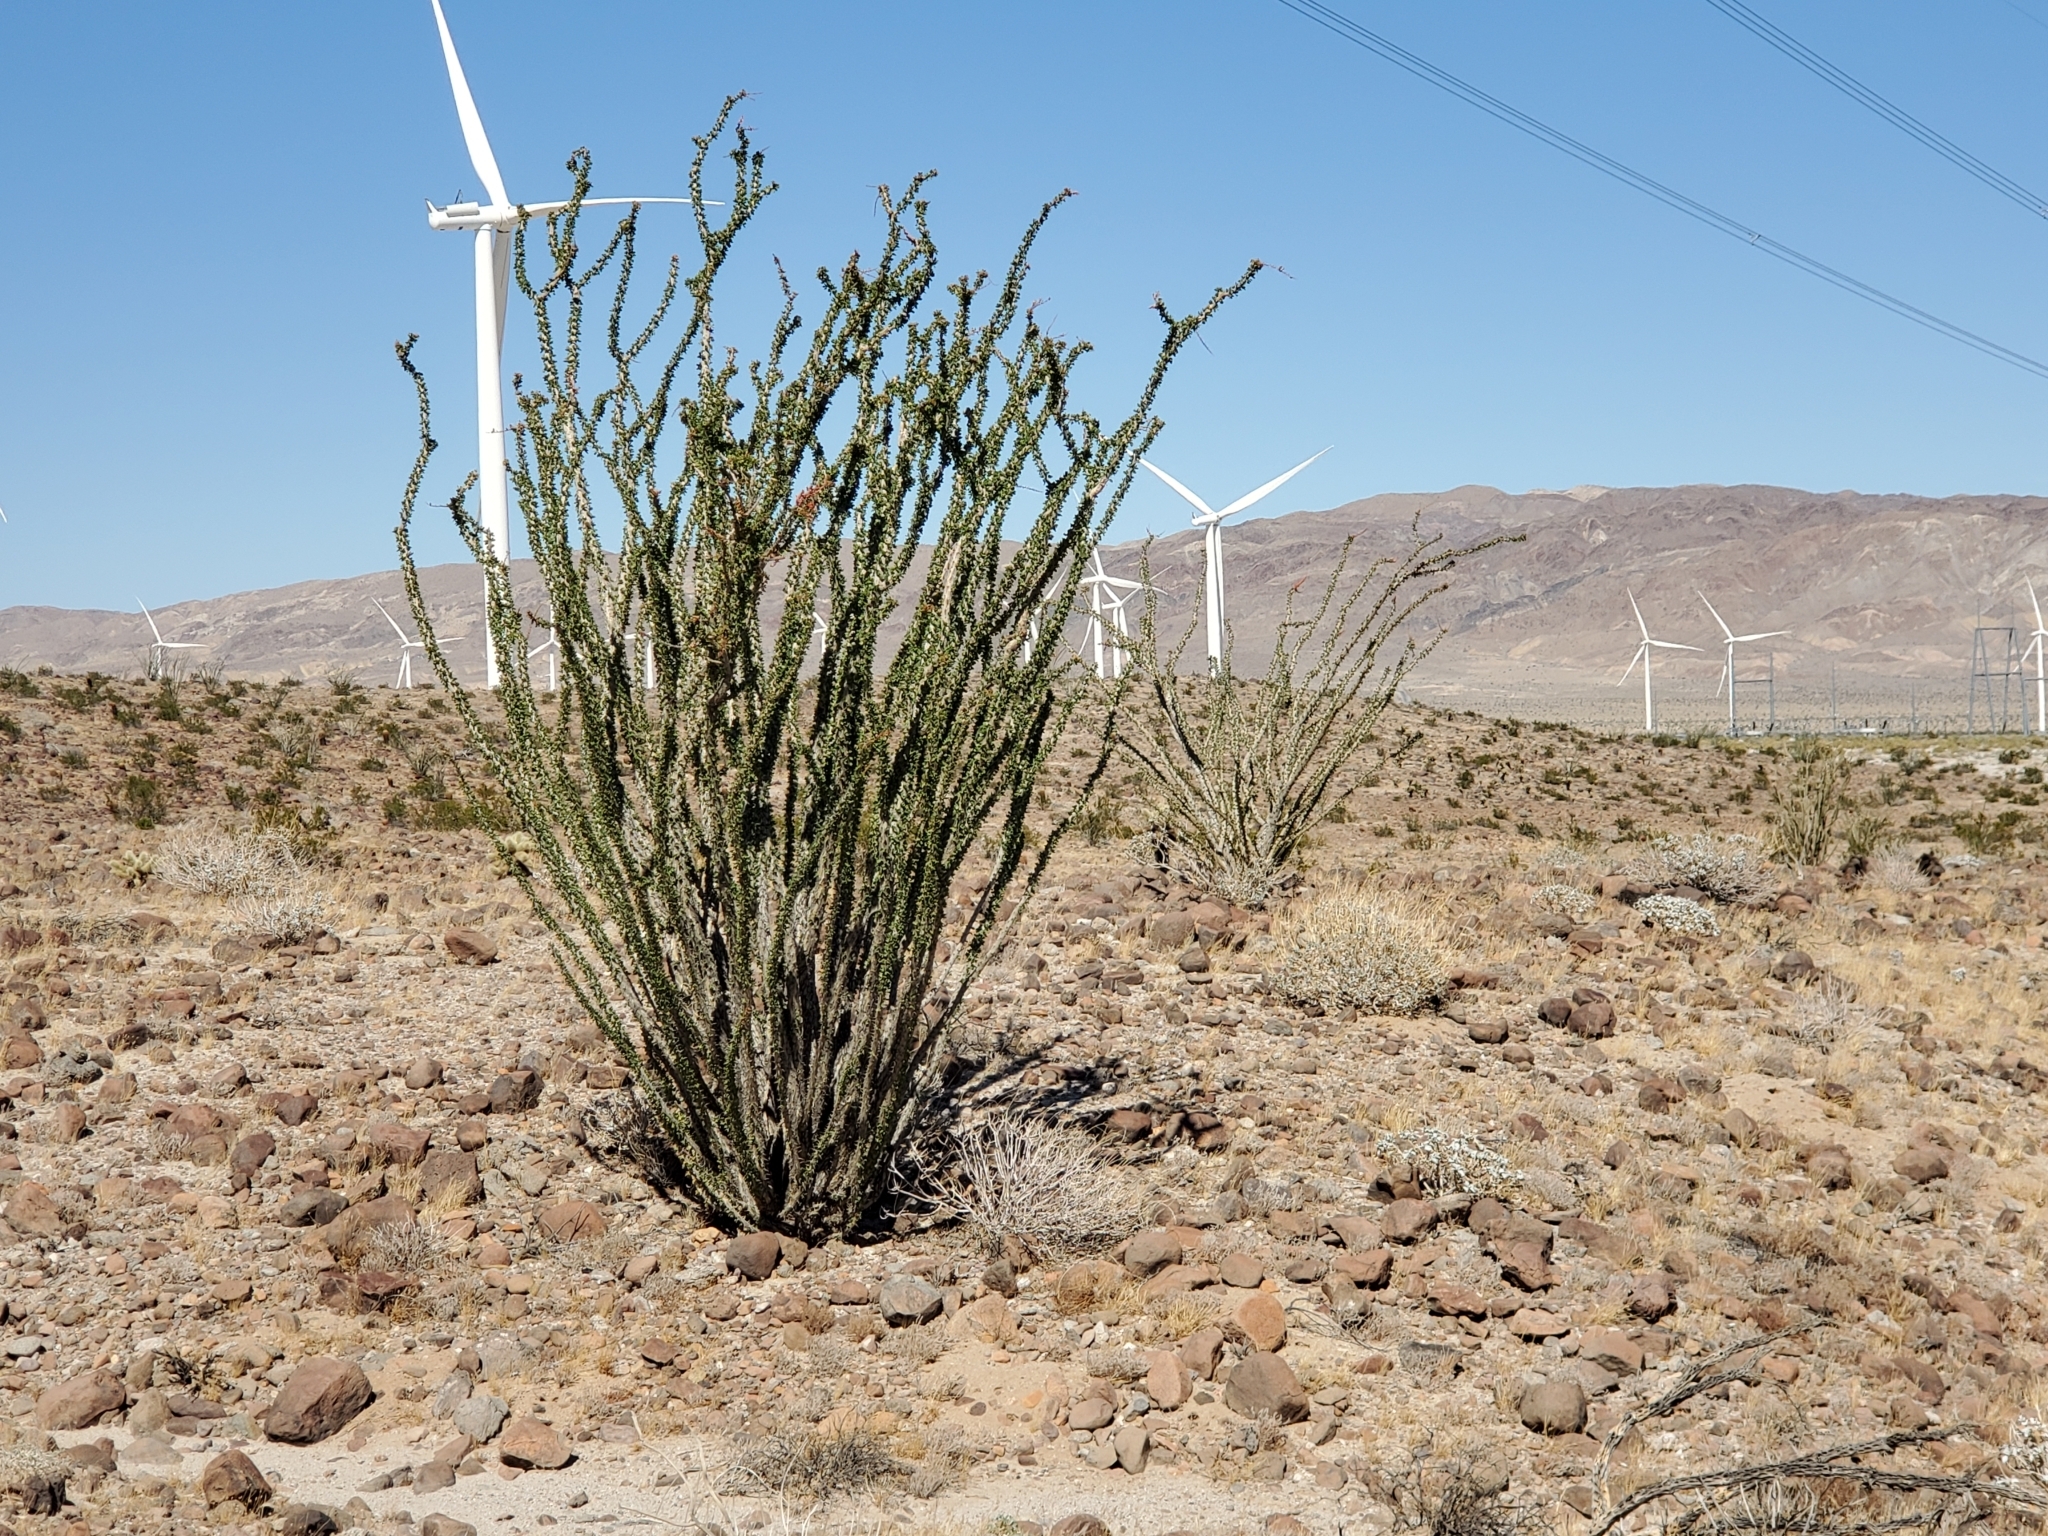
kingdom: Plantae
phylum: Tracheophyta
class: Magnoliopsida
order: Ericales
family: Fouquieriaceae
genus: Fouquieria
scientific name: Fouquieria splendens
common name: Vine-cactus
